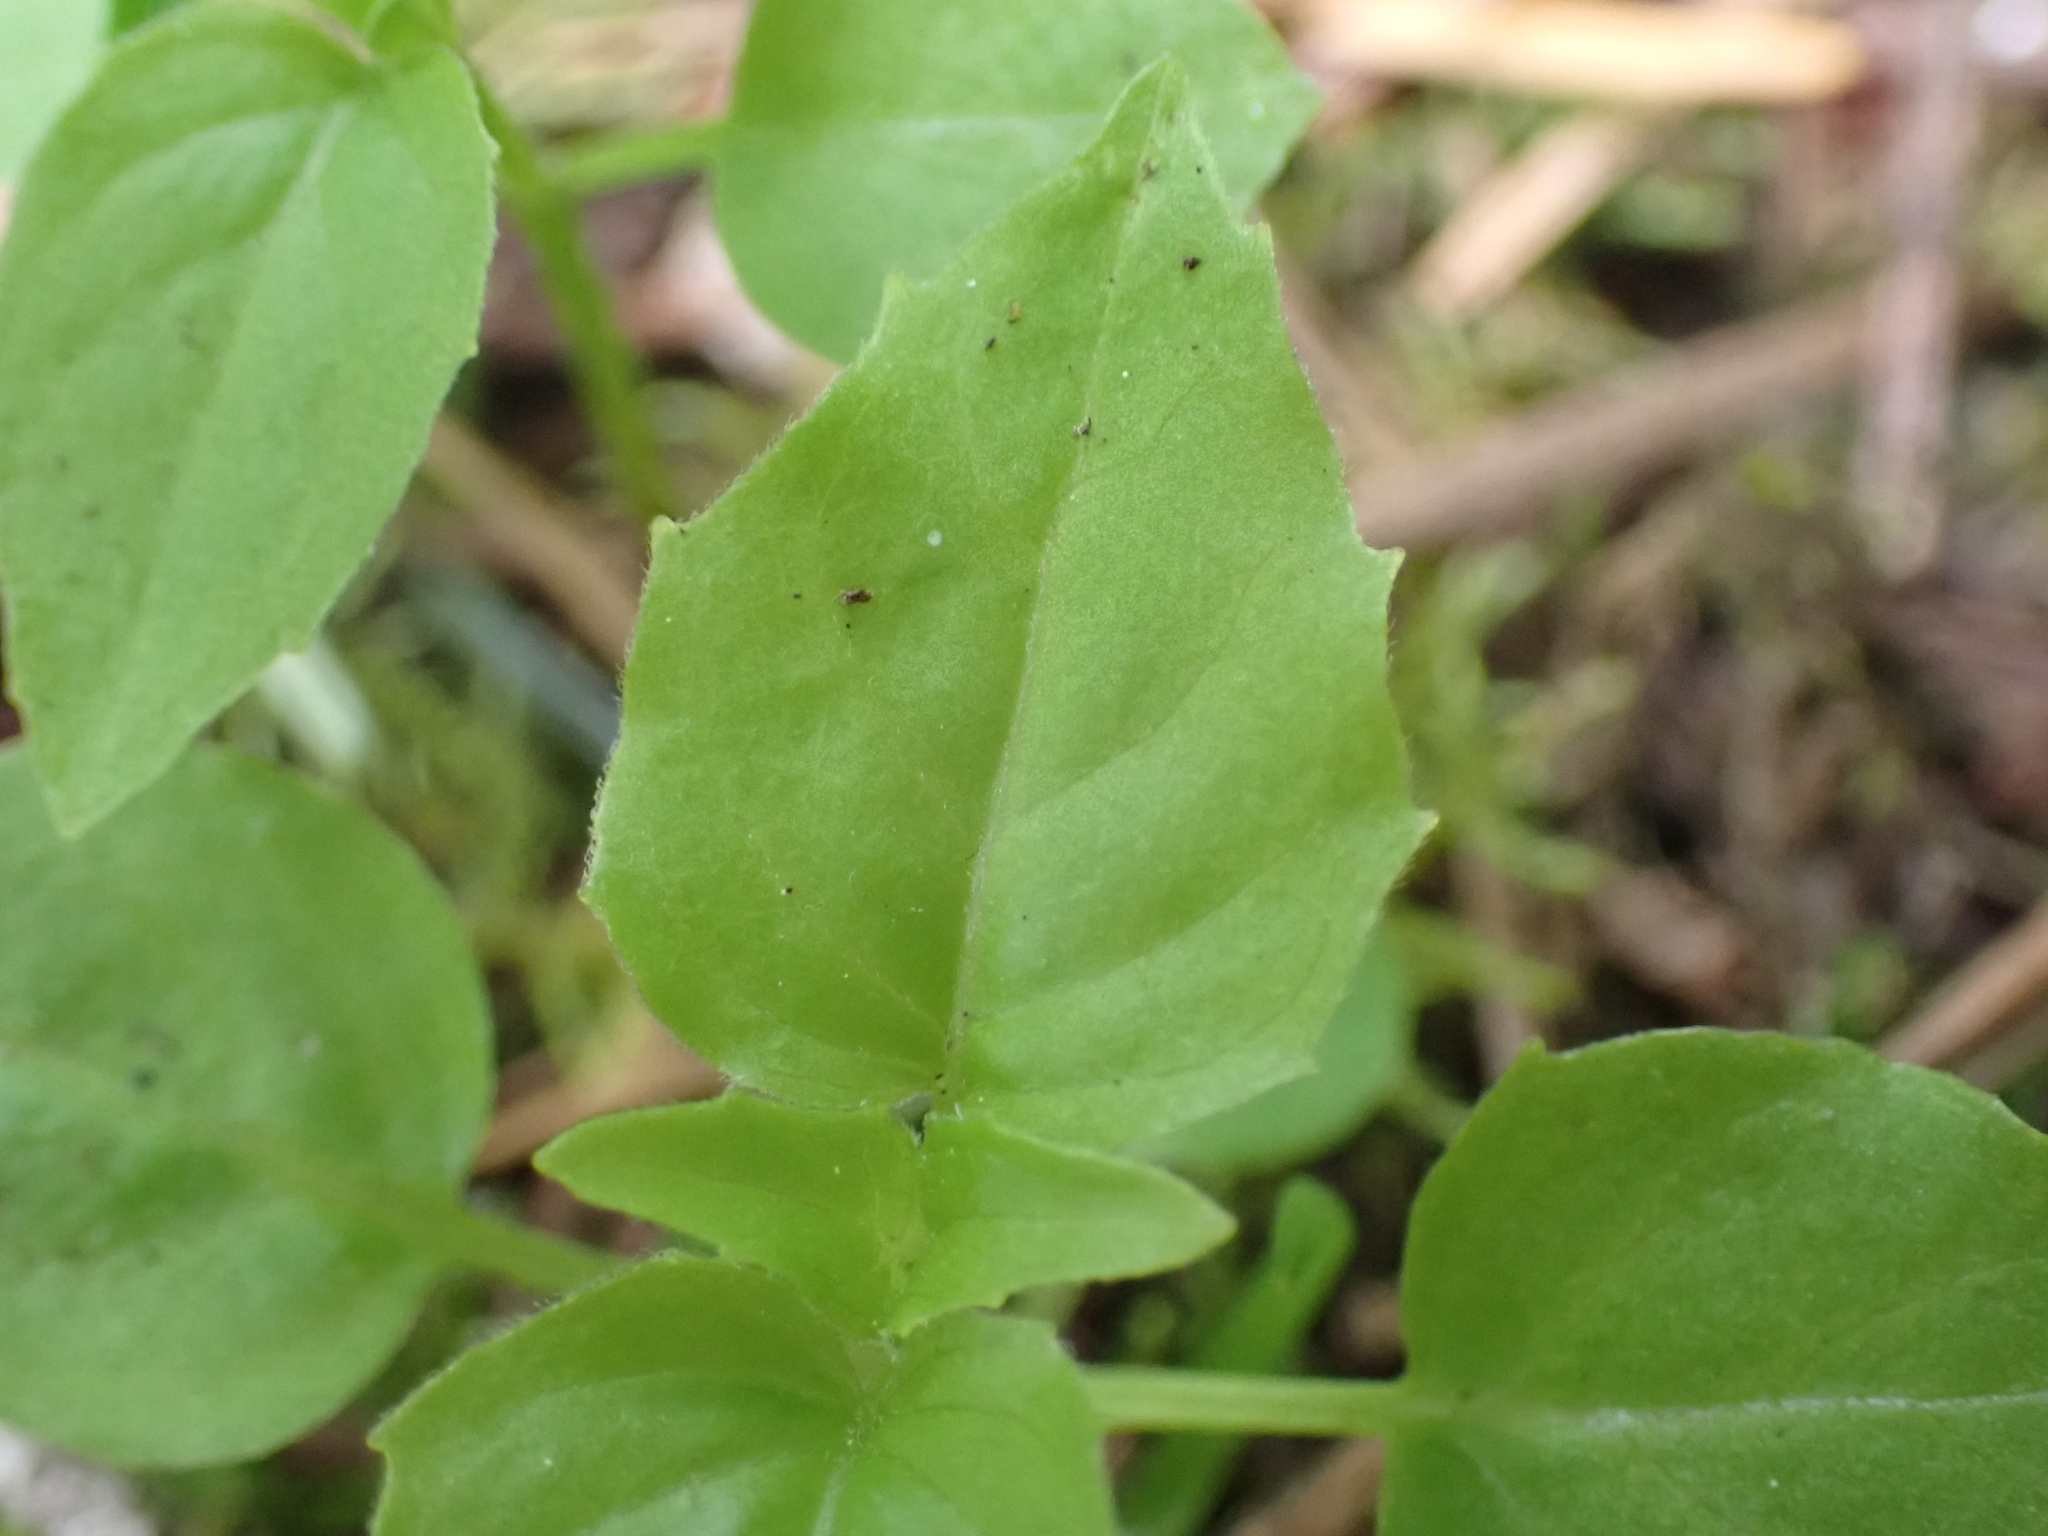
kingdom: Plantae
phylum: Tracheophyta
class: Magnoliopsida
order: Myrtales
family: Onagraceae
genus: Circaea
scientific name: Circaea alpina
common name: Alpine enchanter's-nightshade
